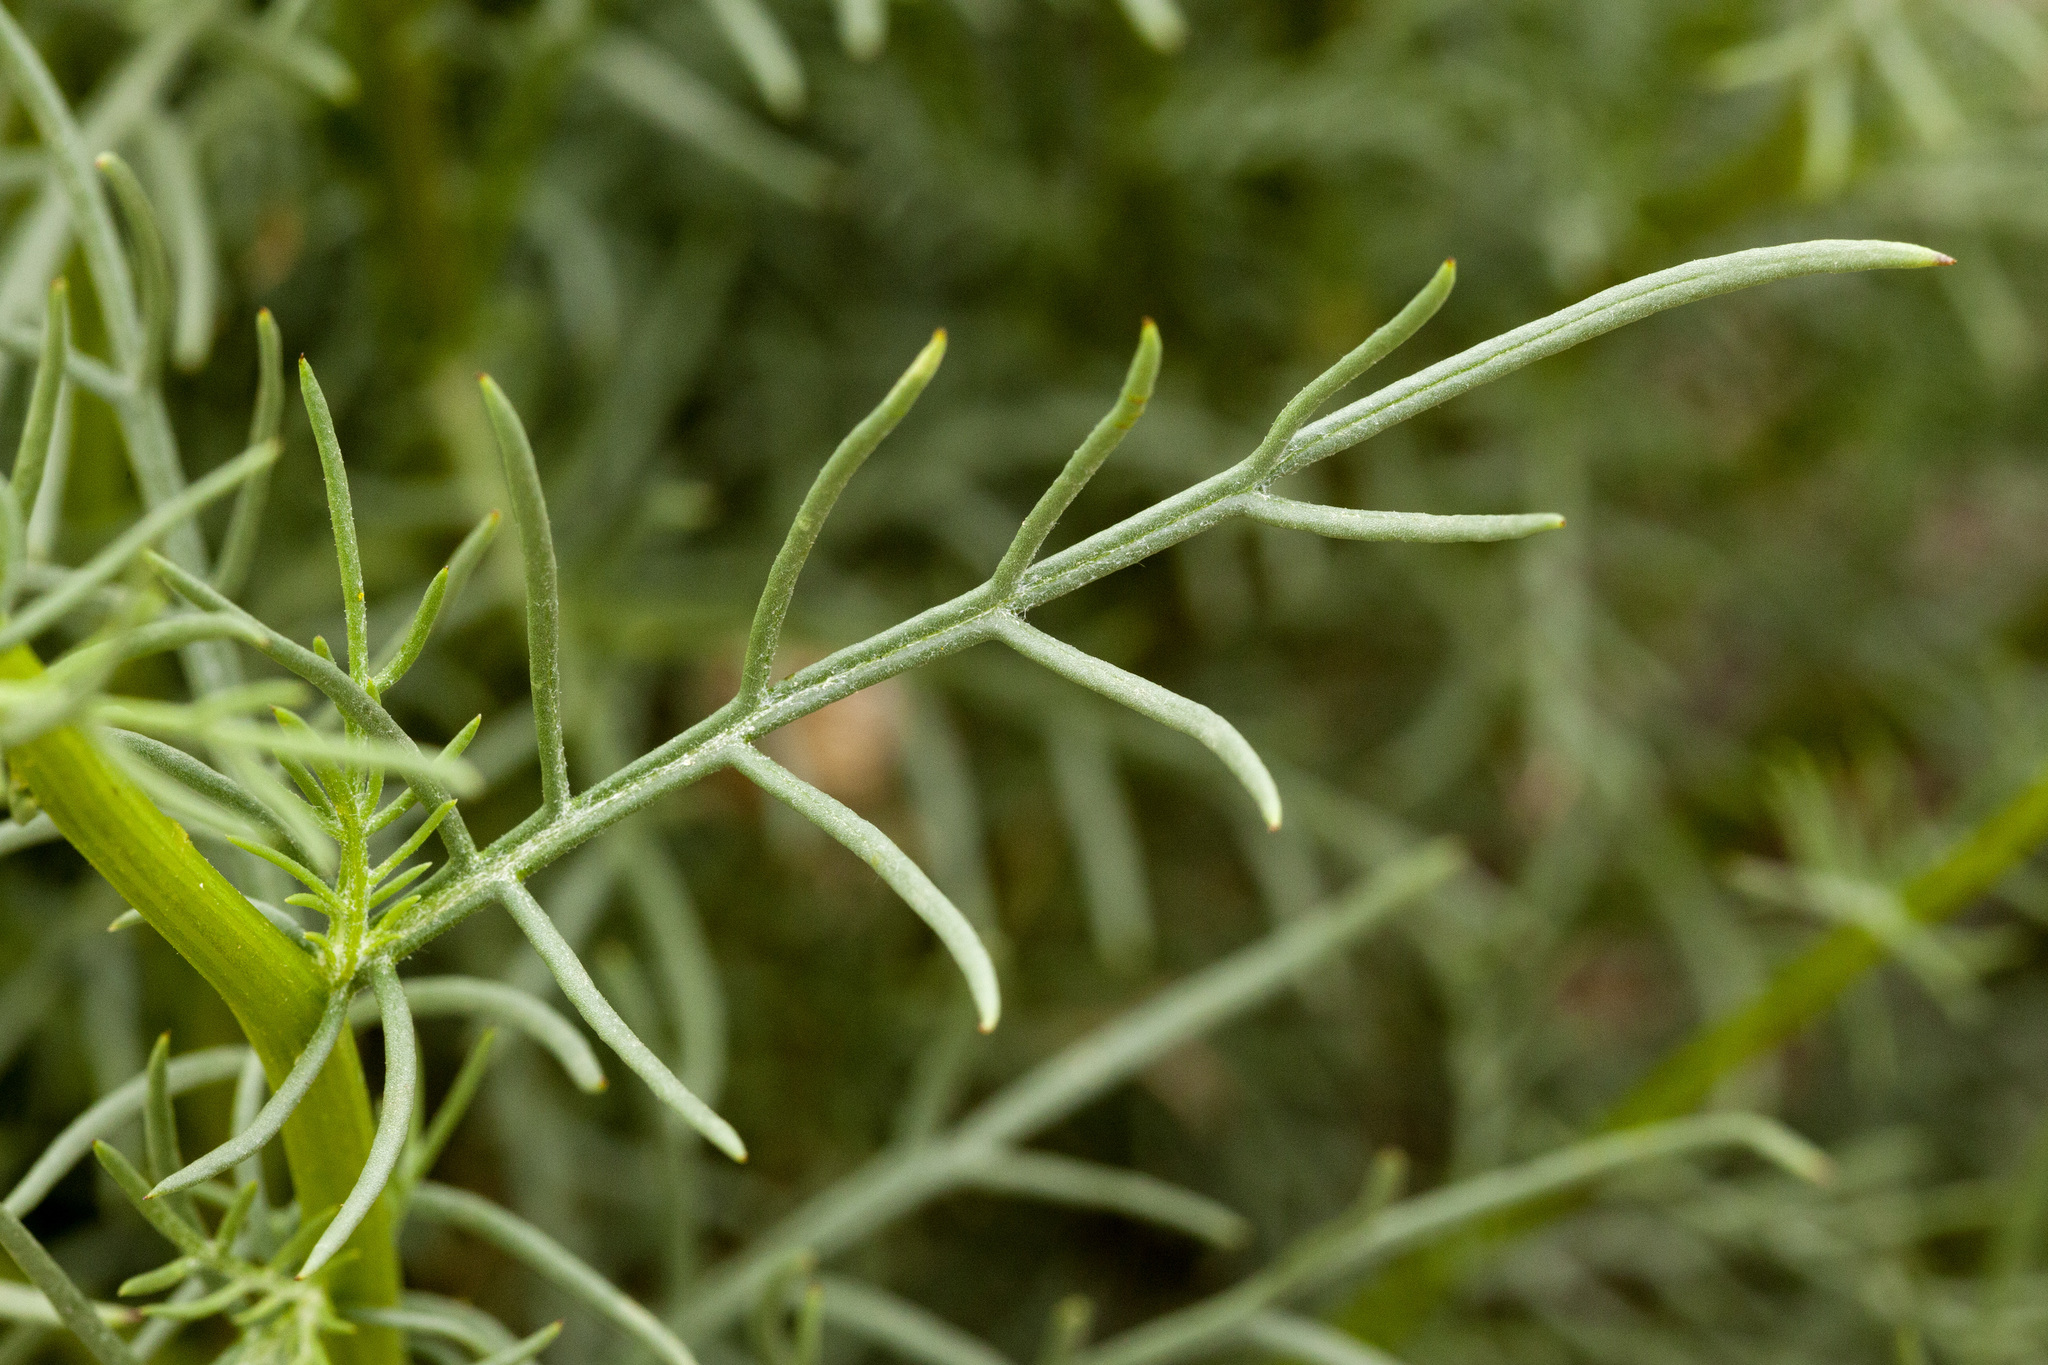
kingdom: Plantae
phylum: Tracheophyta
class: Magnoliopsida
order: Asterales
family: Asteraceae
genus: Senecio
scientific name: Senecio flaccidus
